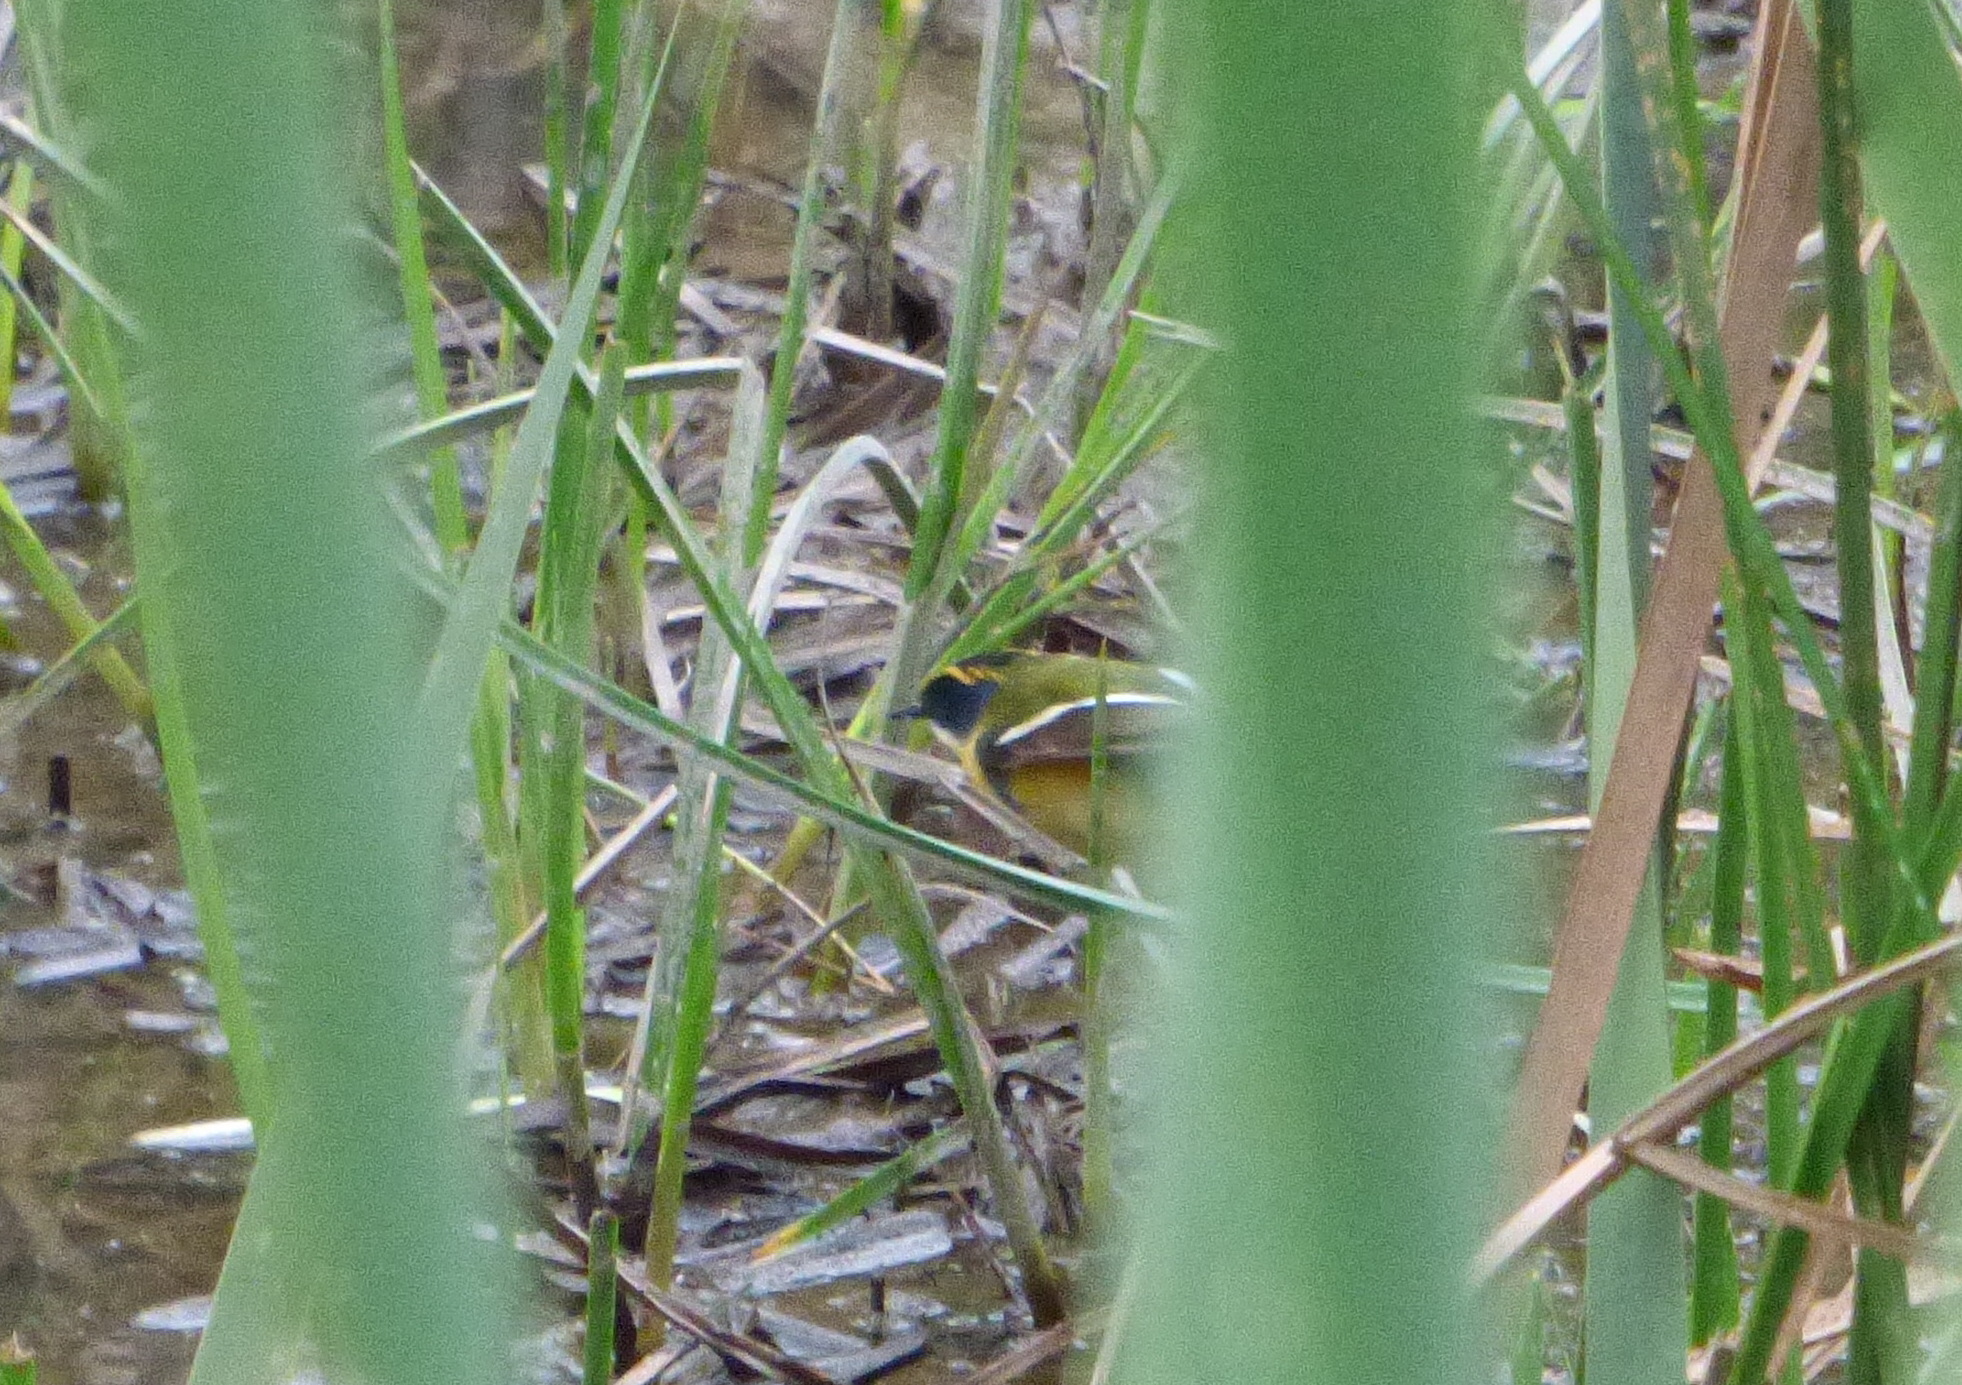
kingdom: Animalia
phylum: Chordata
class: Aves
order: Passeriformes
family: Tyrannidae
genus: Tachuris
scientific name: Tachuris rubrigastra
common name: Many-colored rush tyrant
